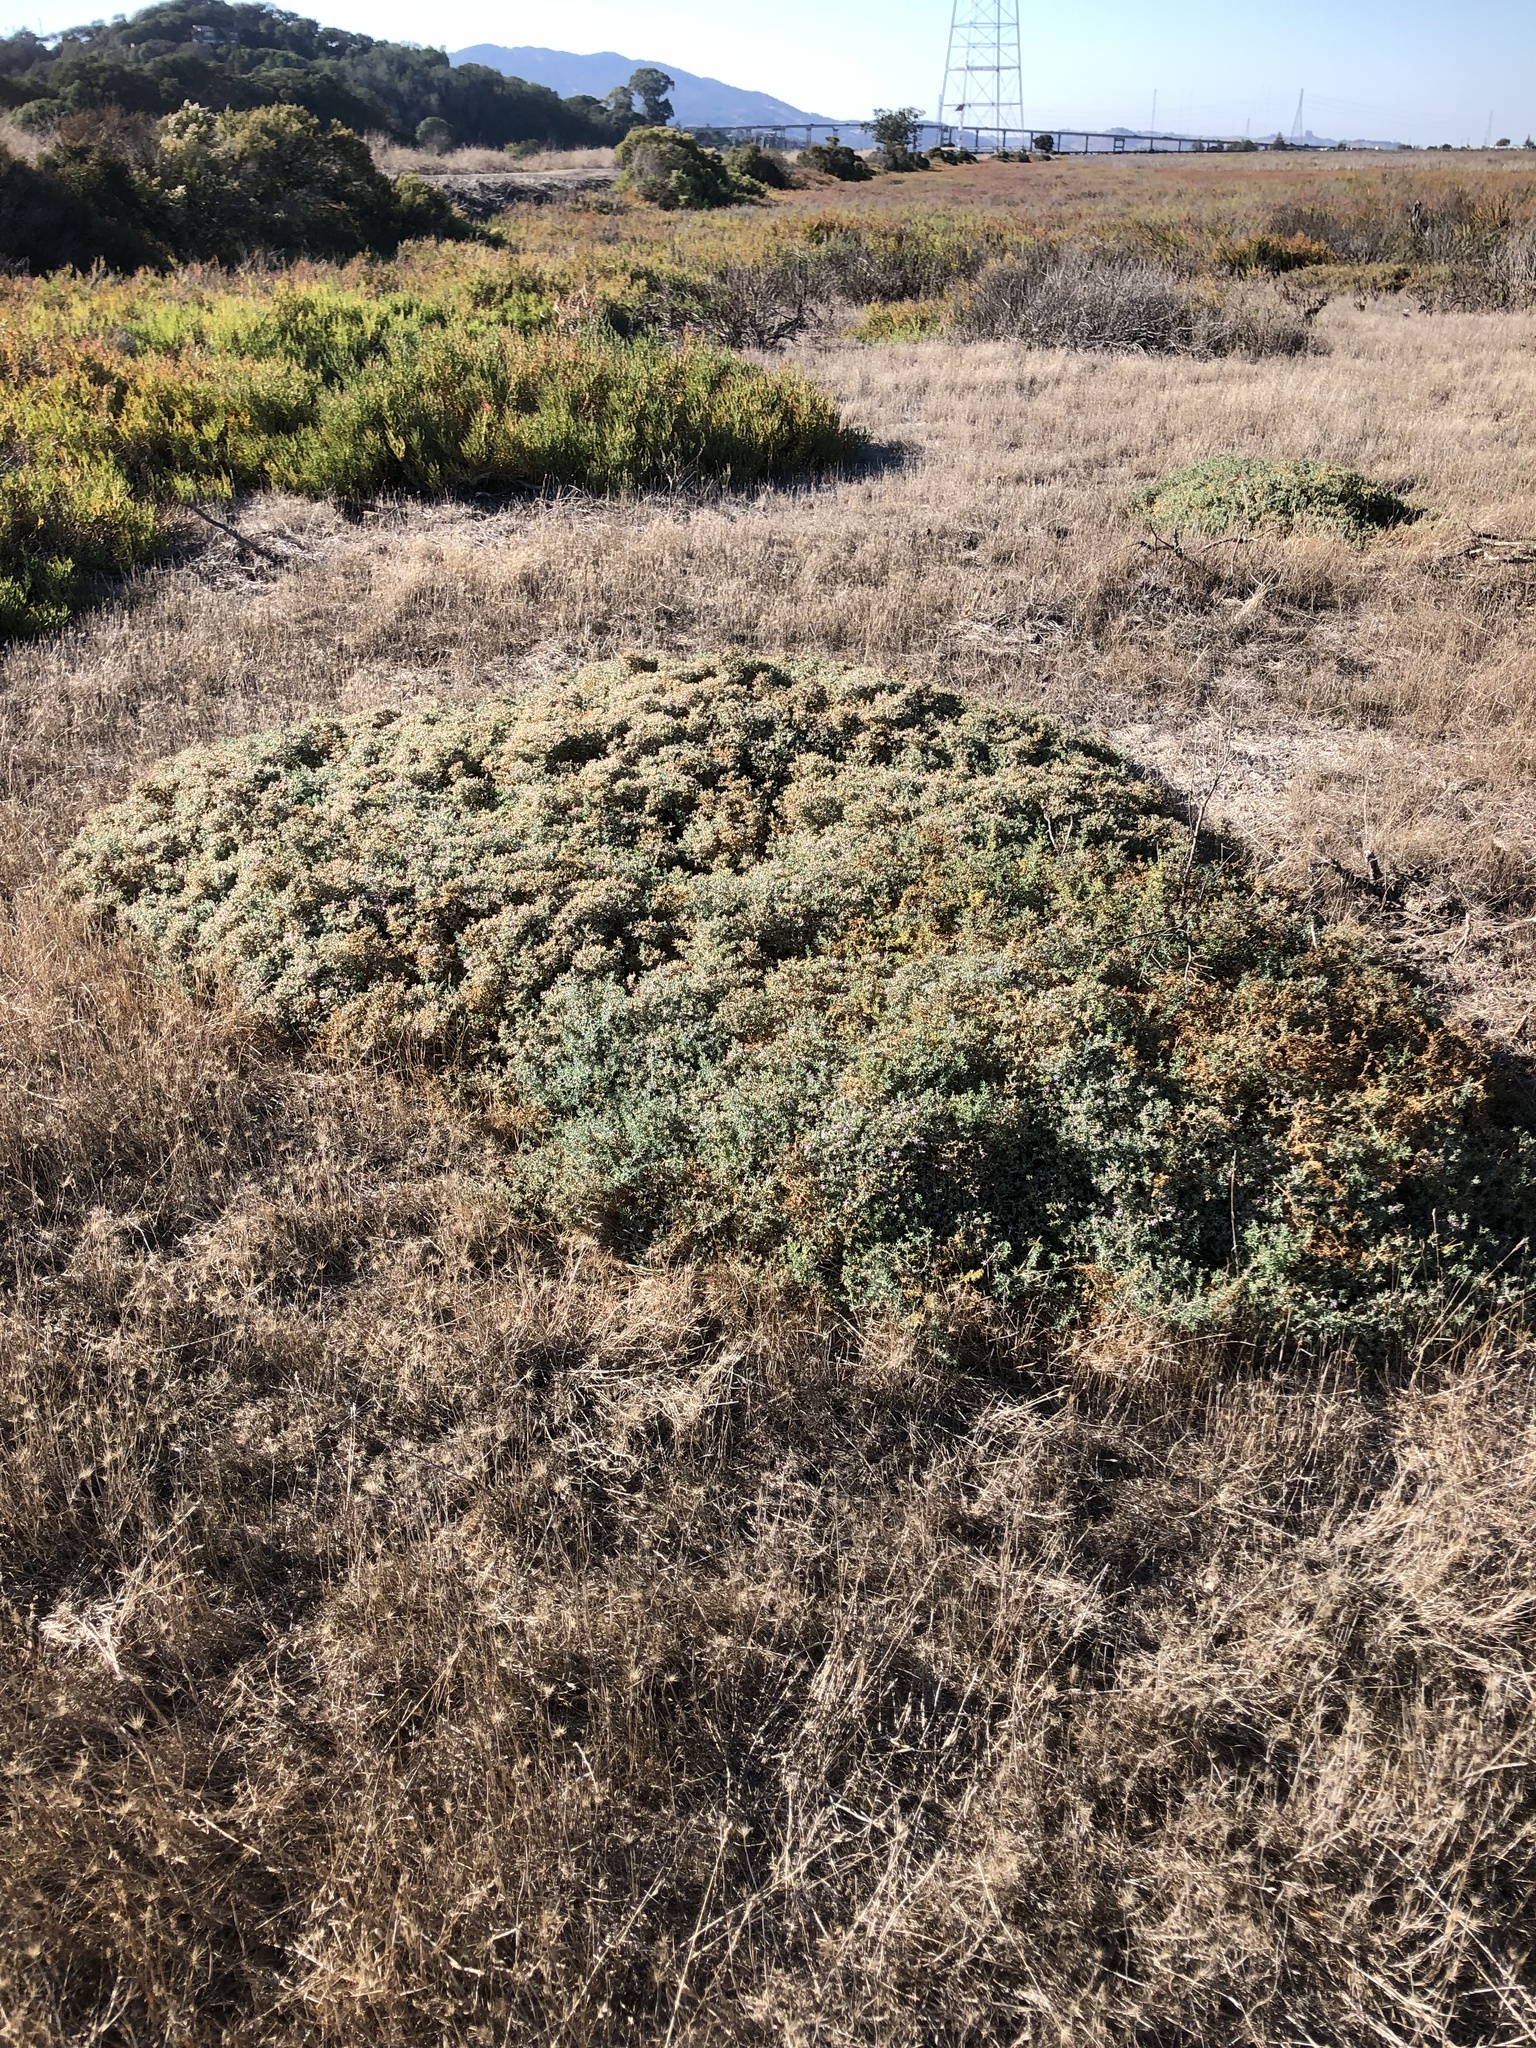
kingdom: Plantae
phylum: Tracheophyta
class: Magnoliopsida
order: Caryophyllales
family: Frankeniaceae
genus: Frankenia
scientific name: Frankenia salina
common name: Alkali seaheath
